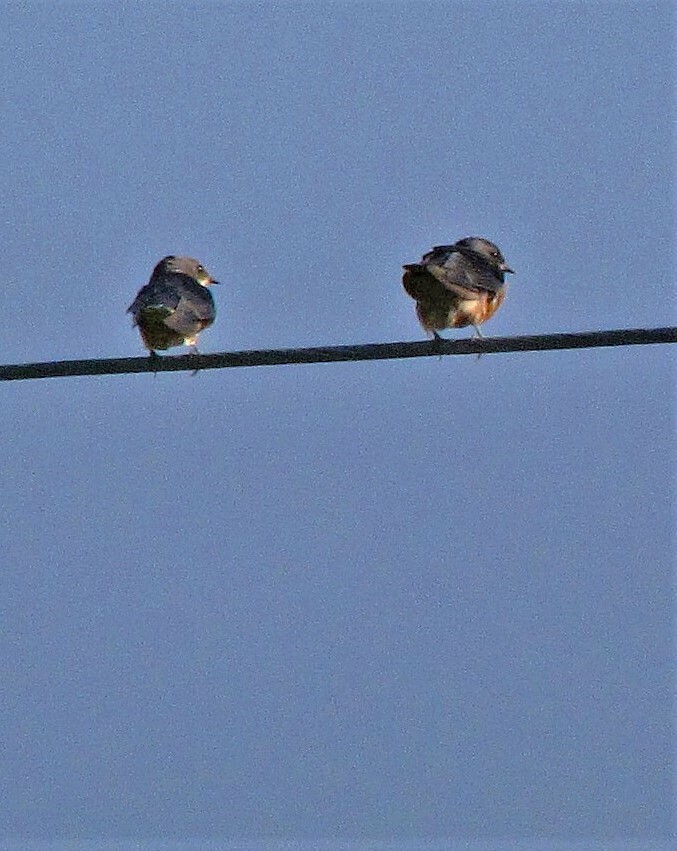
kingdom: Animalia
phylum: Chordata
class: Aves
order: Passeriformes
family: Hirundinidae
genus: Hirundo
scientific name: Hirundo rustica
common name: Barn swallow
